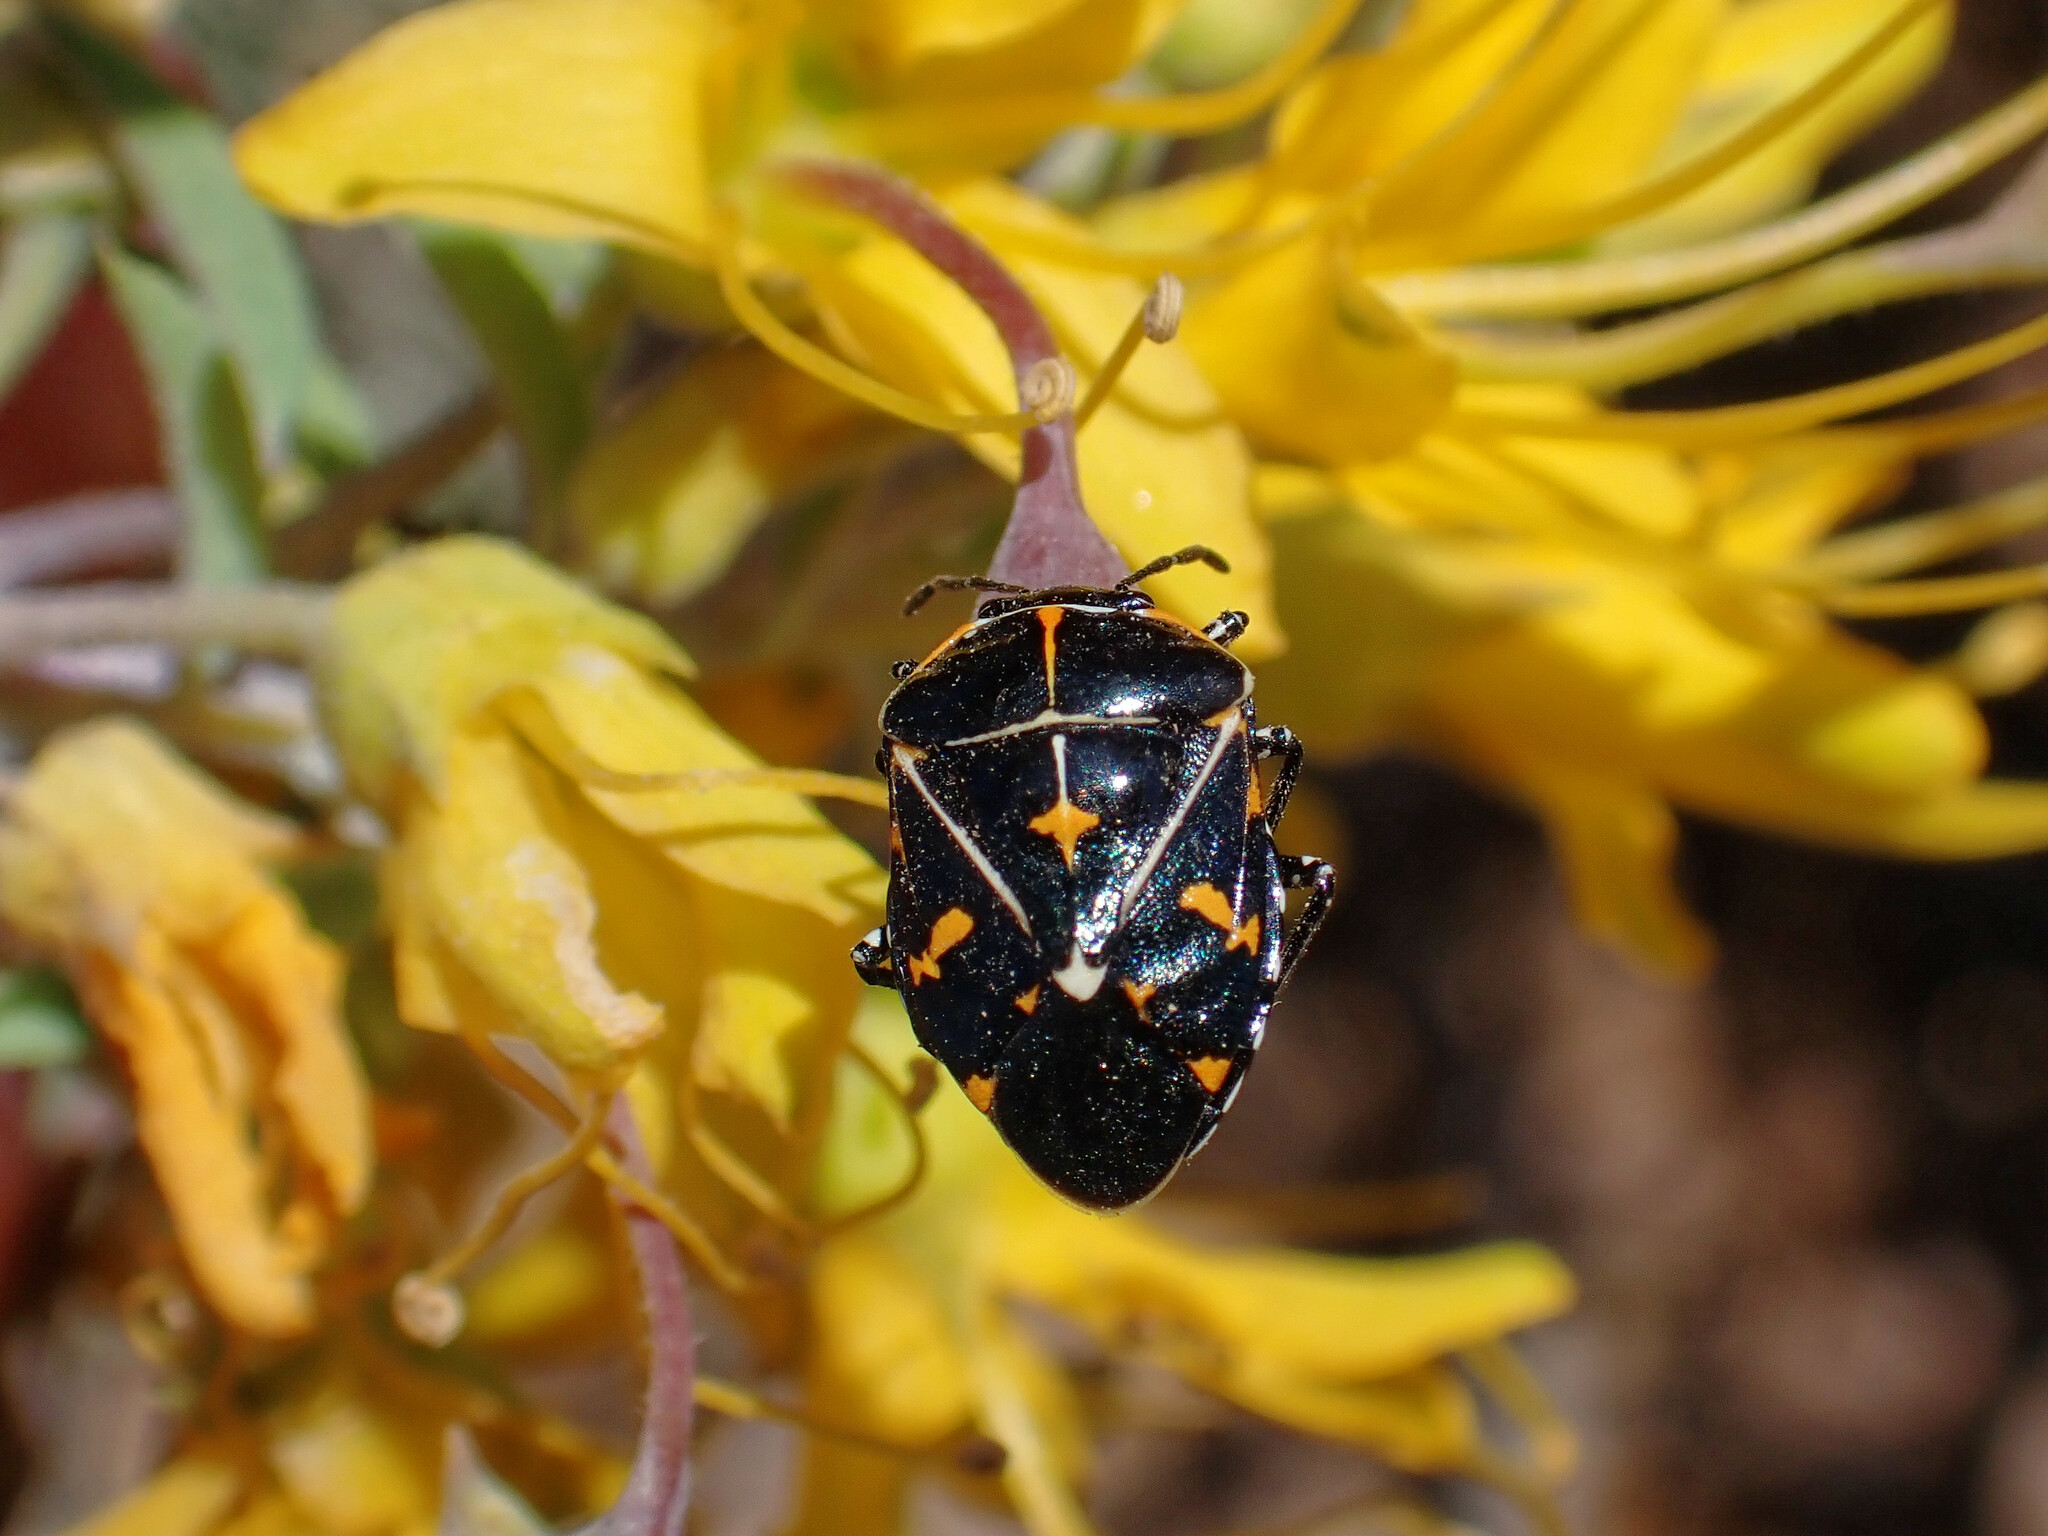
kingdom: Animalia
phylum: Arthropoda
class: Insecta
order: Hemiptera
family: Pentatomidae
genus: Murgantia
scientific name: Murgantia histrionica
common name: Harlequin bug
